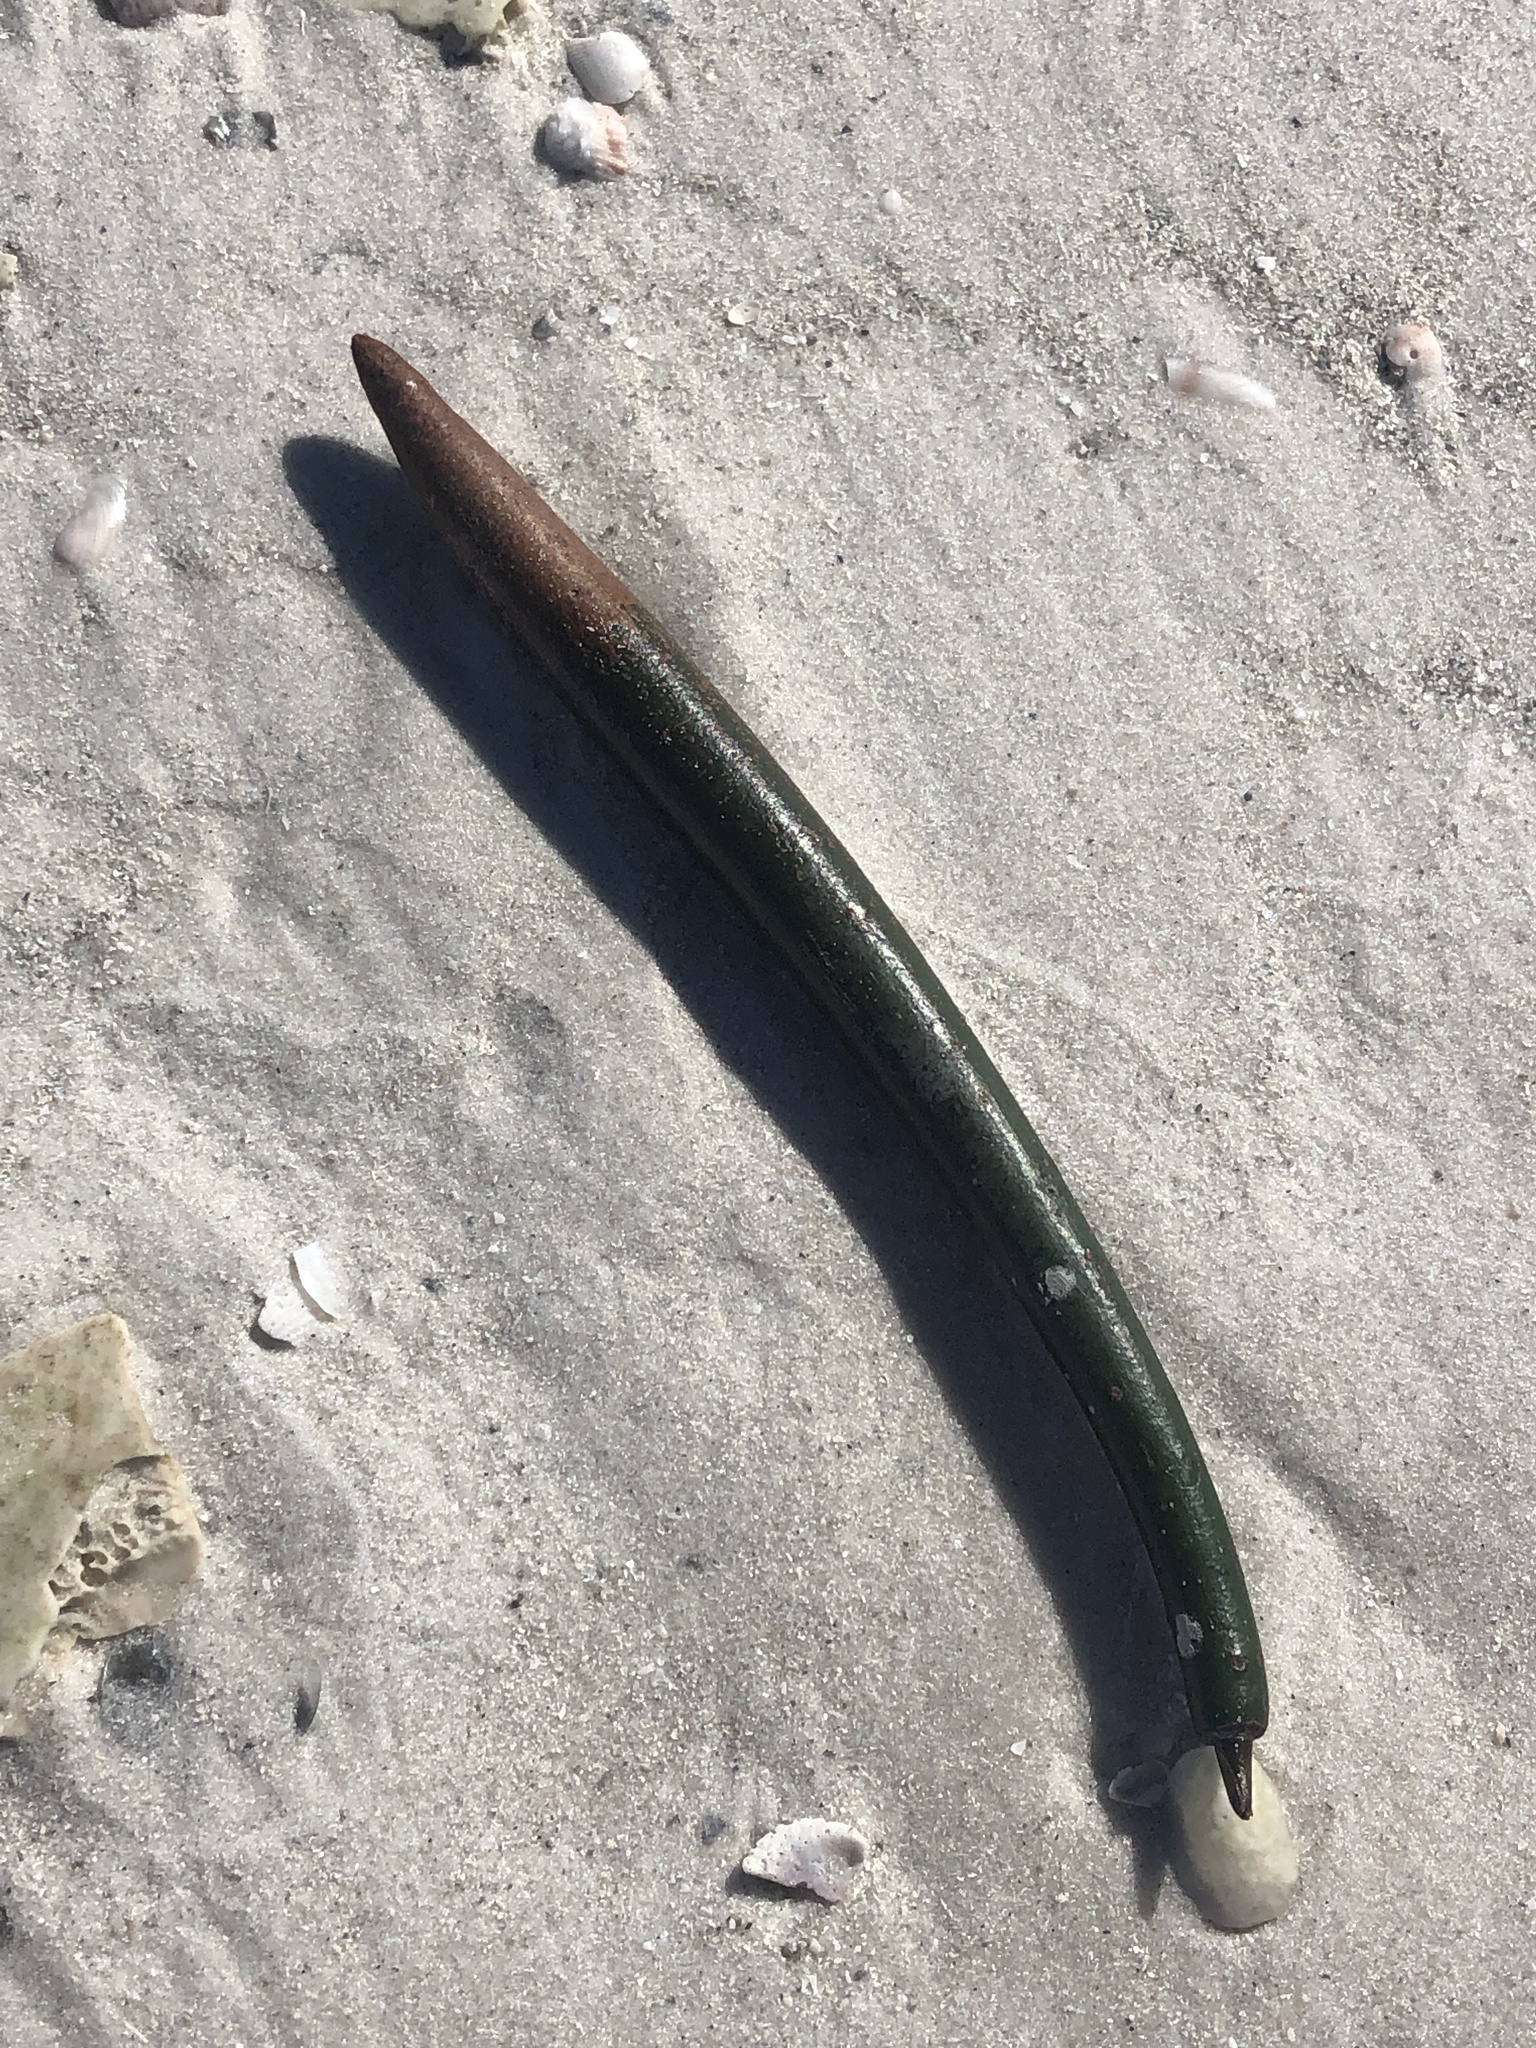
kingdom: Plantae
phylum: Tracheophyta
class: Magnoliopsida
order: Malpighiales
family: Rhizophoraceae
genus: Rhizophora
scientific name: Rhizophora mangle
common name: Red mangrove
